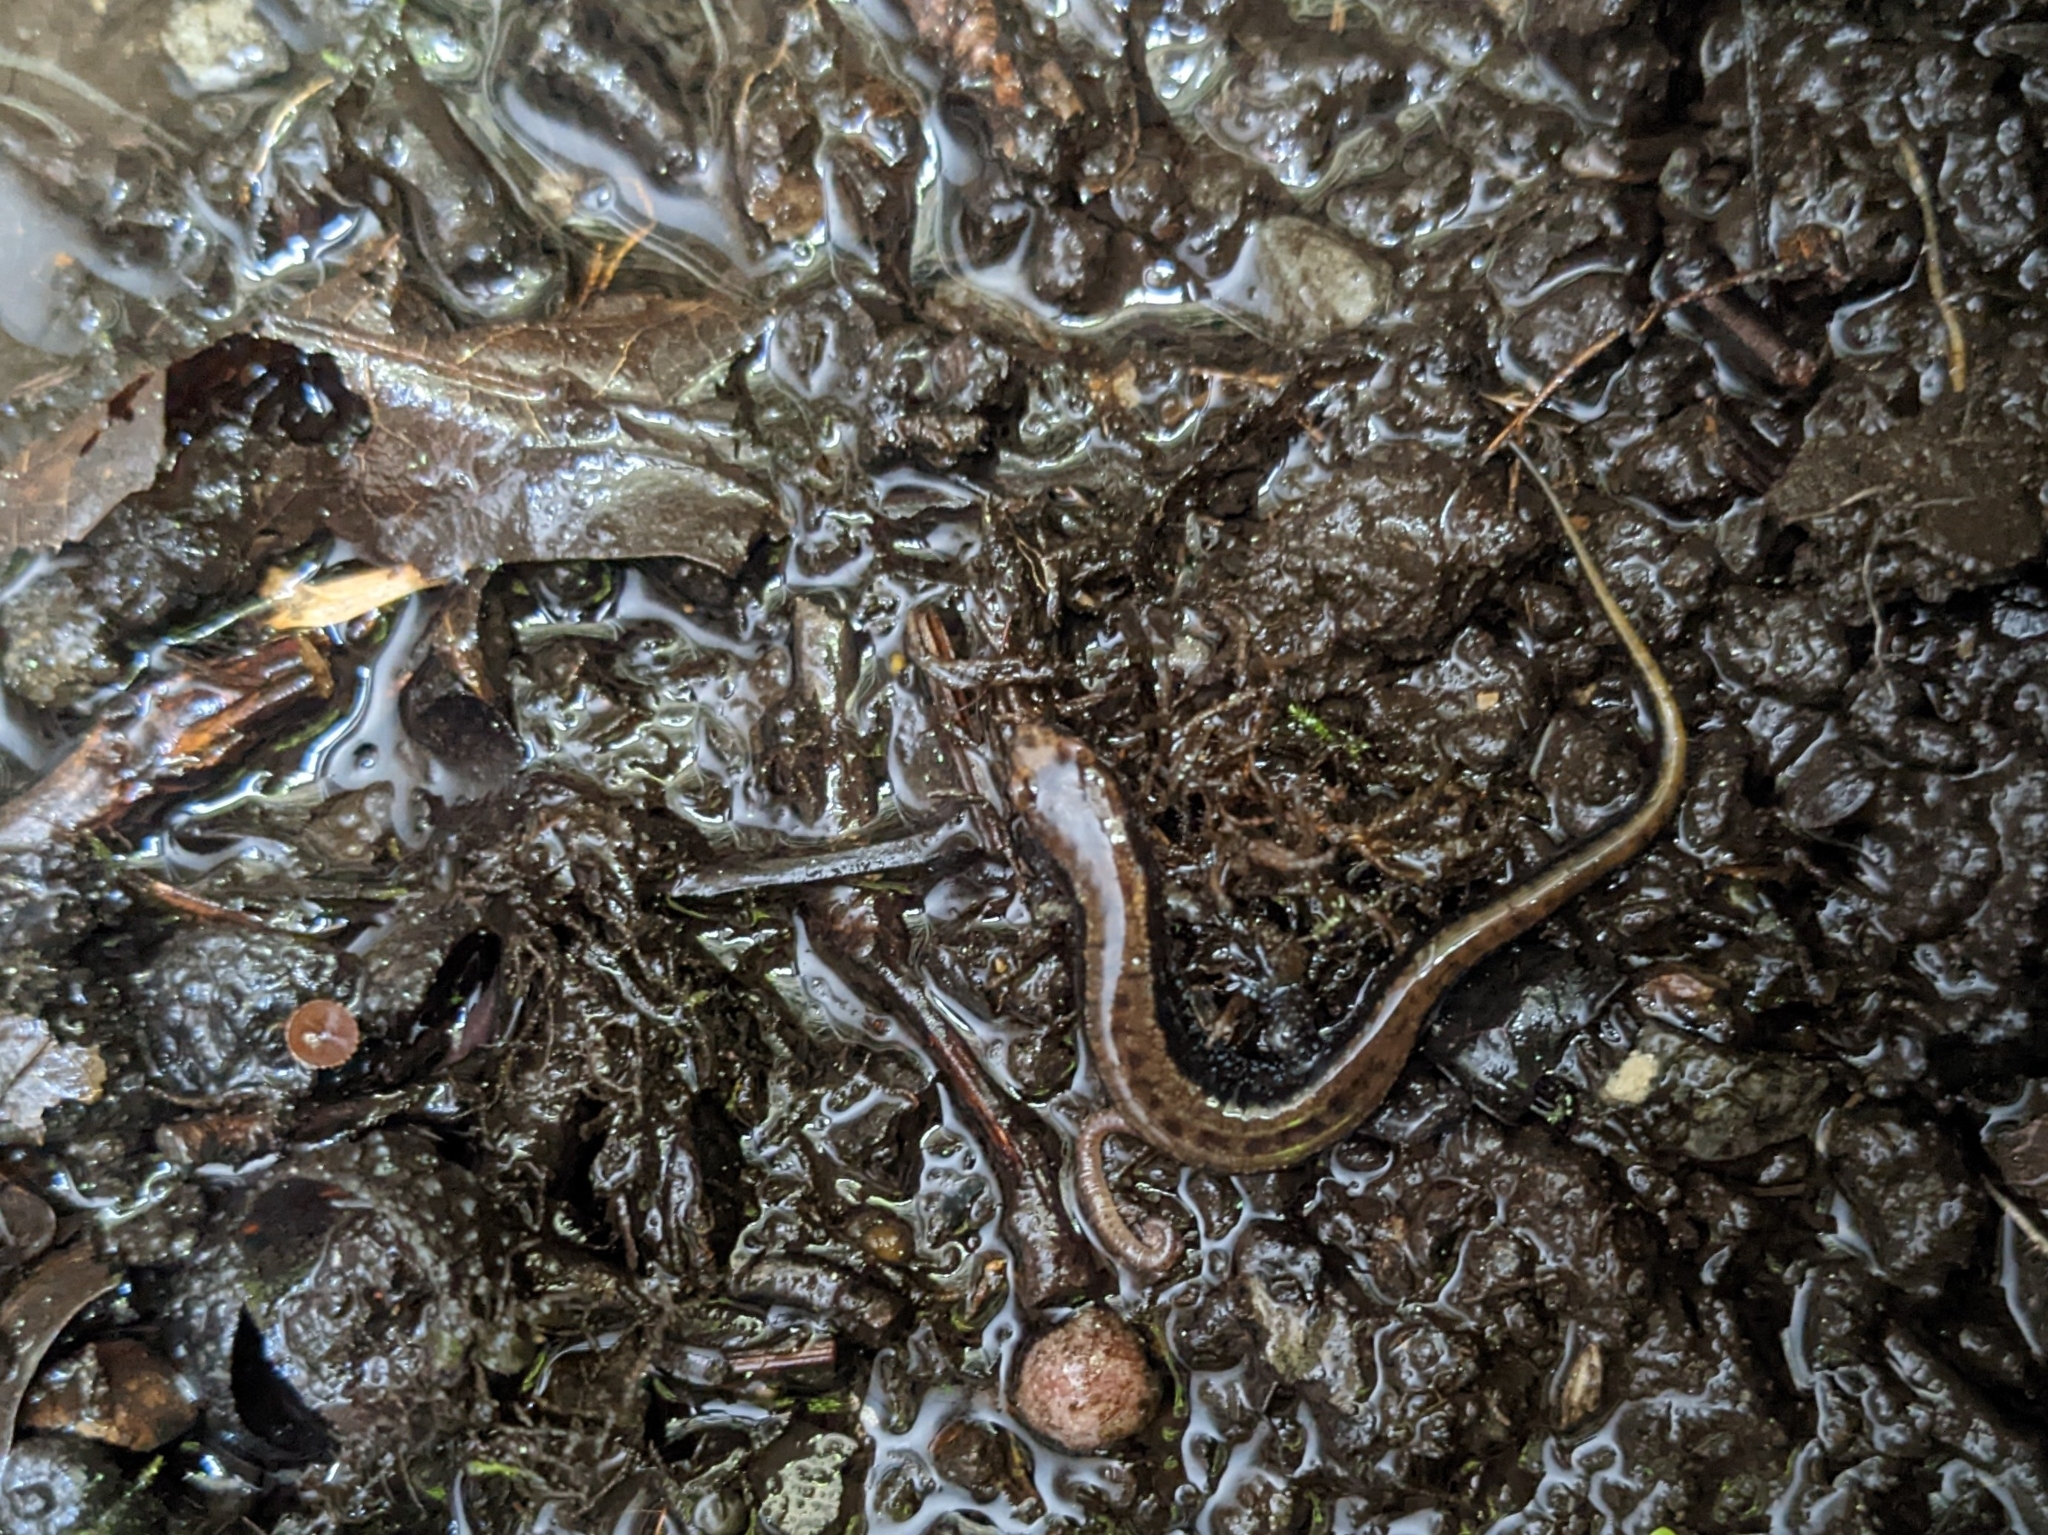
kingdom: Animalia
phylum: Chordata
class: Amphibia
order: Caudata
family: Plethodontidae
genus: Desmognathus
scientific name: Desmognathus ochrophaeus
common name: Allegheny mountain dusky salamander
